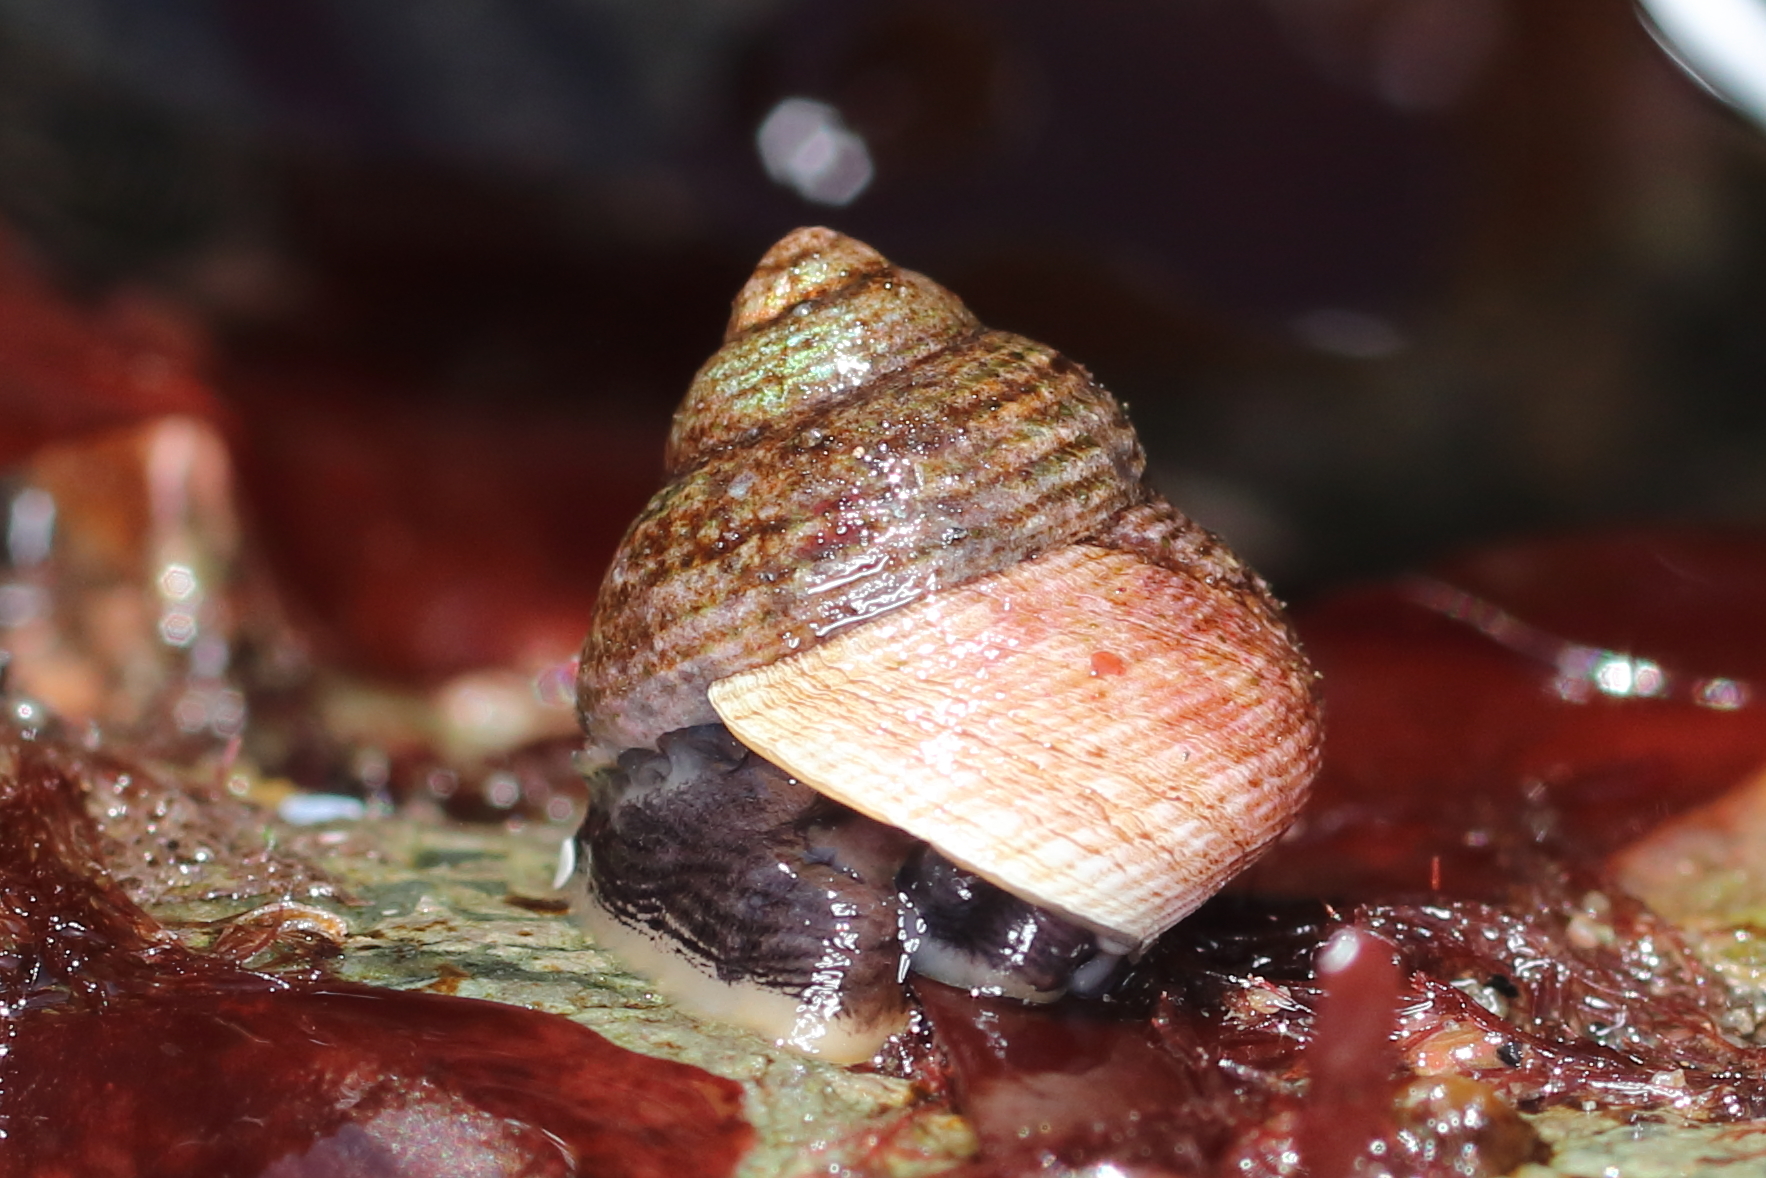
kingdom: Animalia
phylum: Mollusca
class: Gastropoda
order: Trochida
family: Margaritidae
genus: Margarites
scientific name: Margarites pupillus
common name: Puppet margarite
